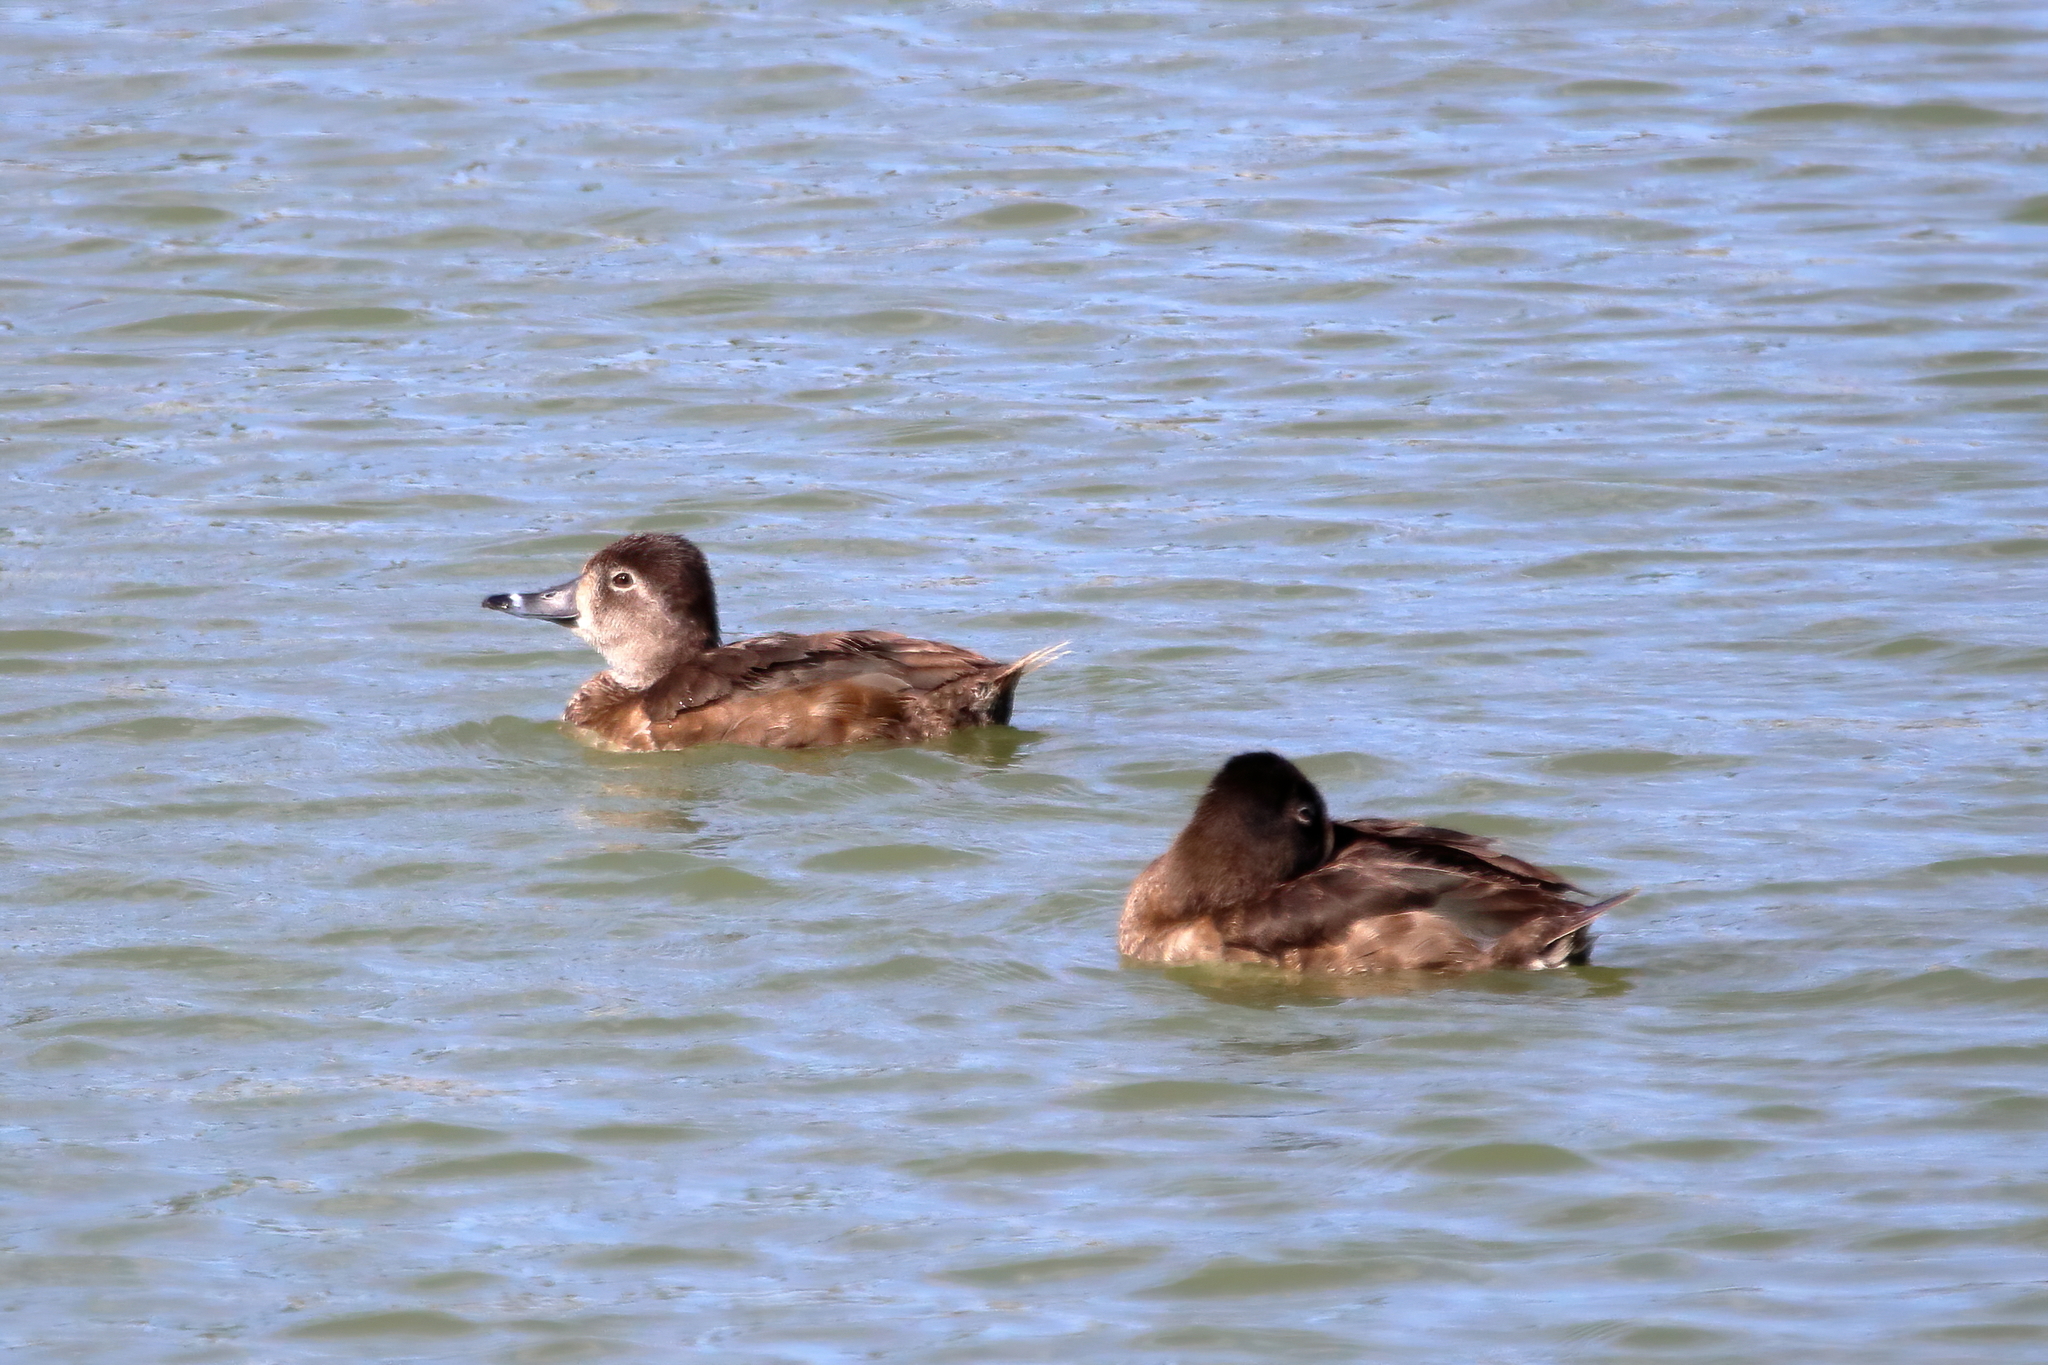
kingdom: Animalia
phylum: Chordata
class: Aves
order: Anseriformes
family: Anatidae
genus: Aythya
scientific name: Aythya collaris
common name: Ring-necked duck
